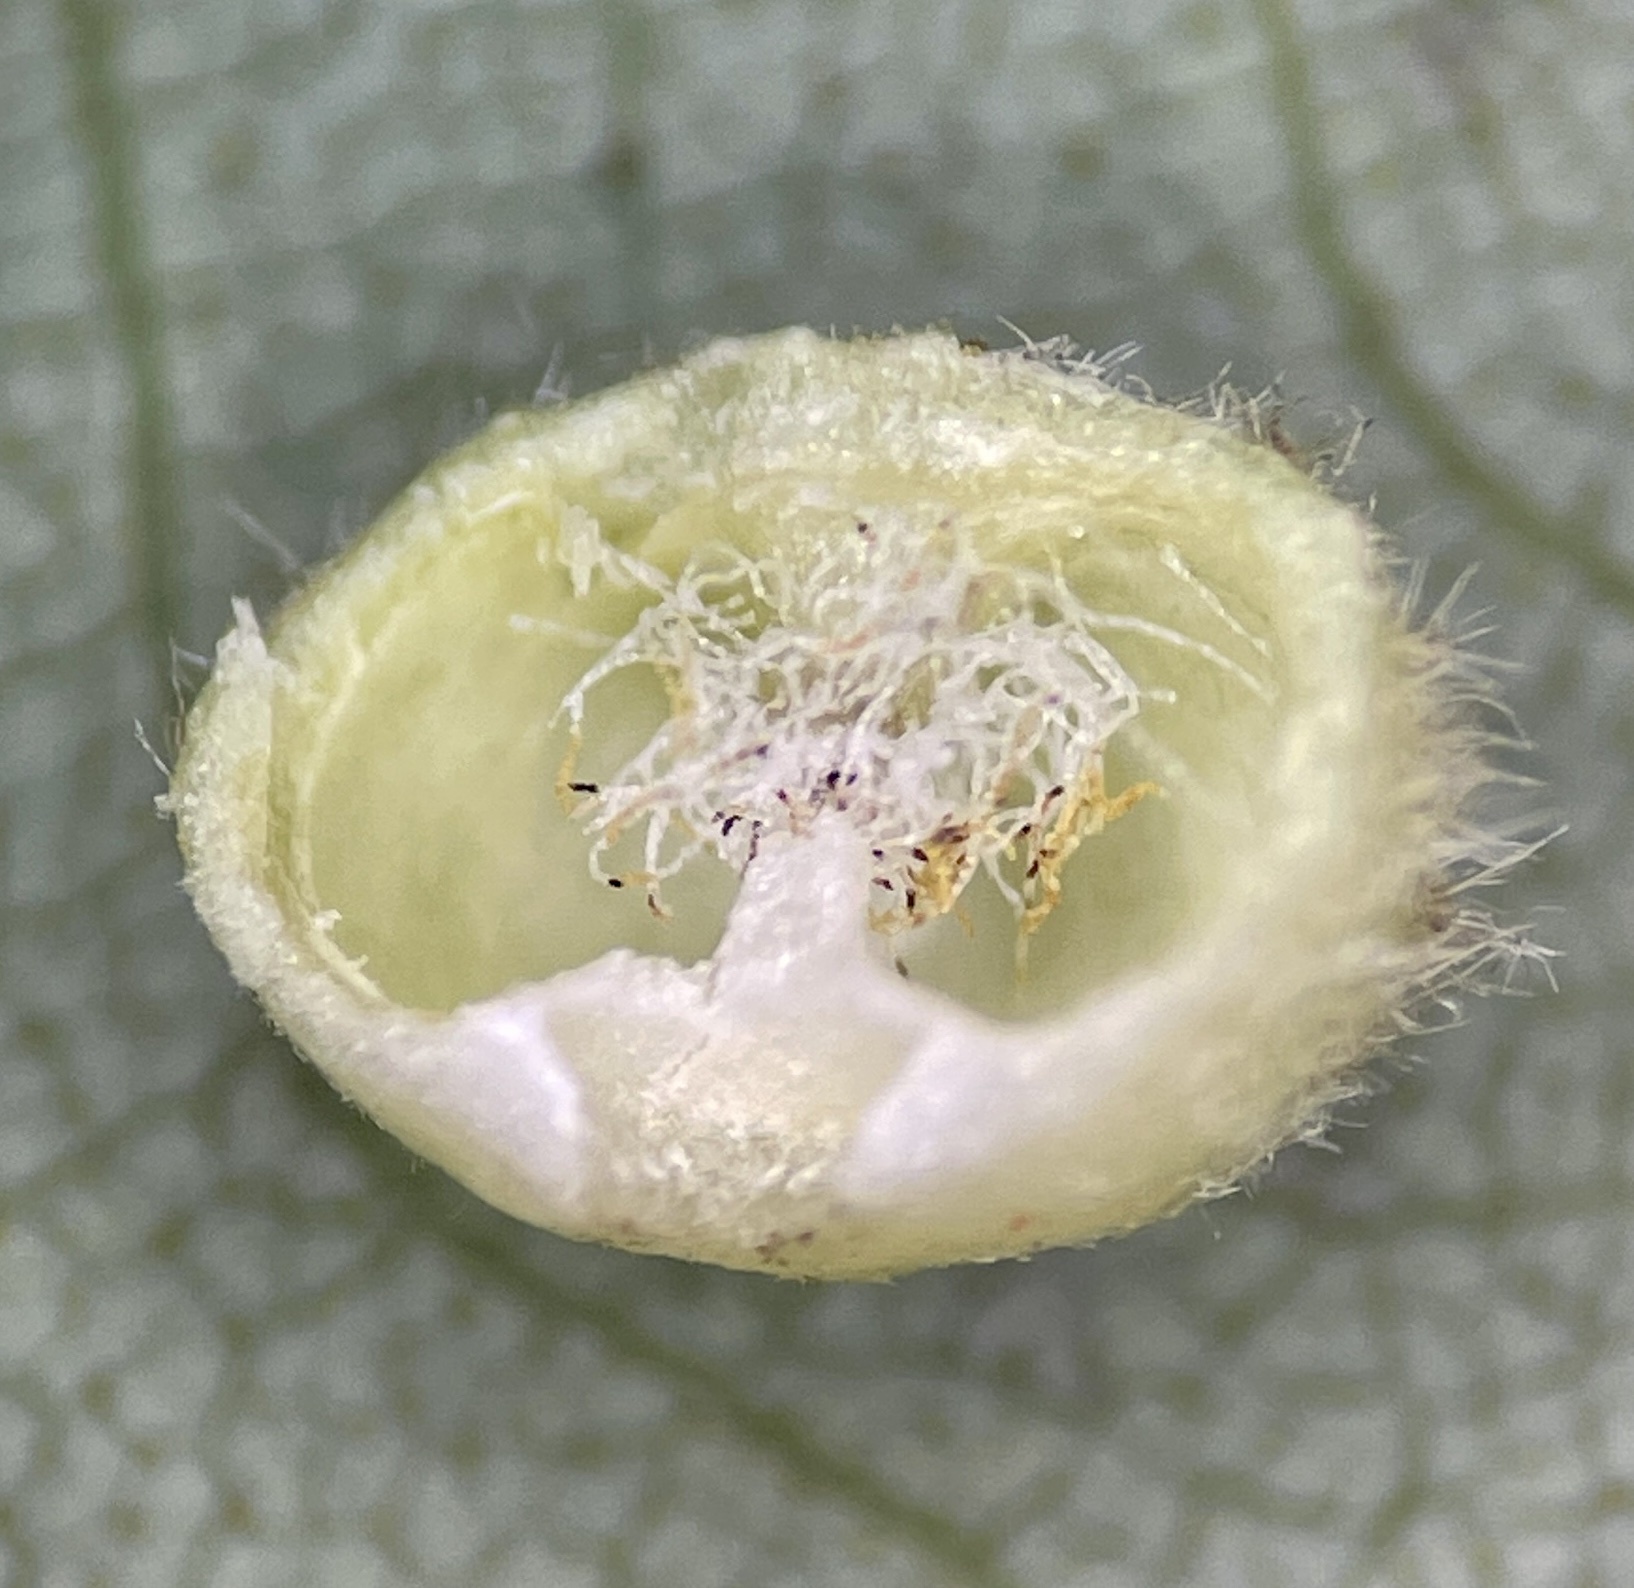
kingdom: Animalia
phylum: Arthropoda
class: Insecta
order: Diptera
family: Cecidomyiidae
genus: Caryomyia
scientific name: Caryomyia thompsoni
